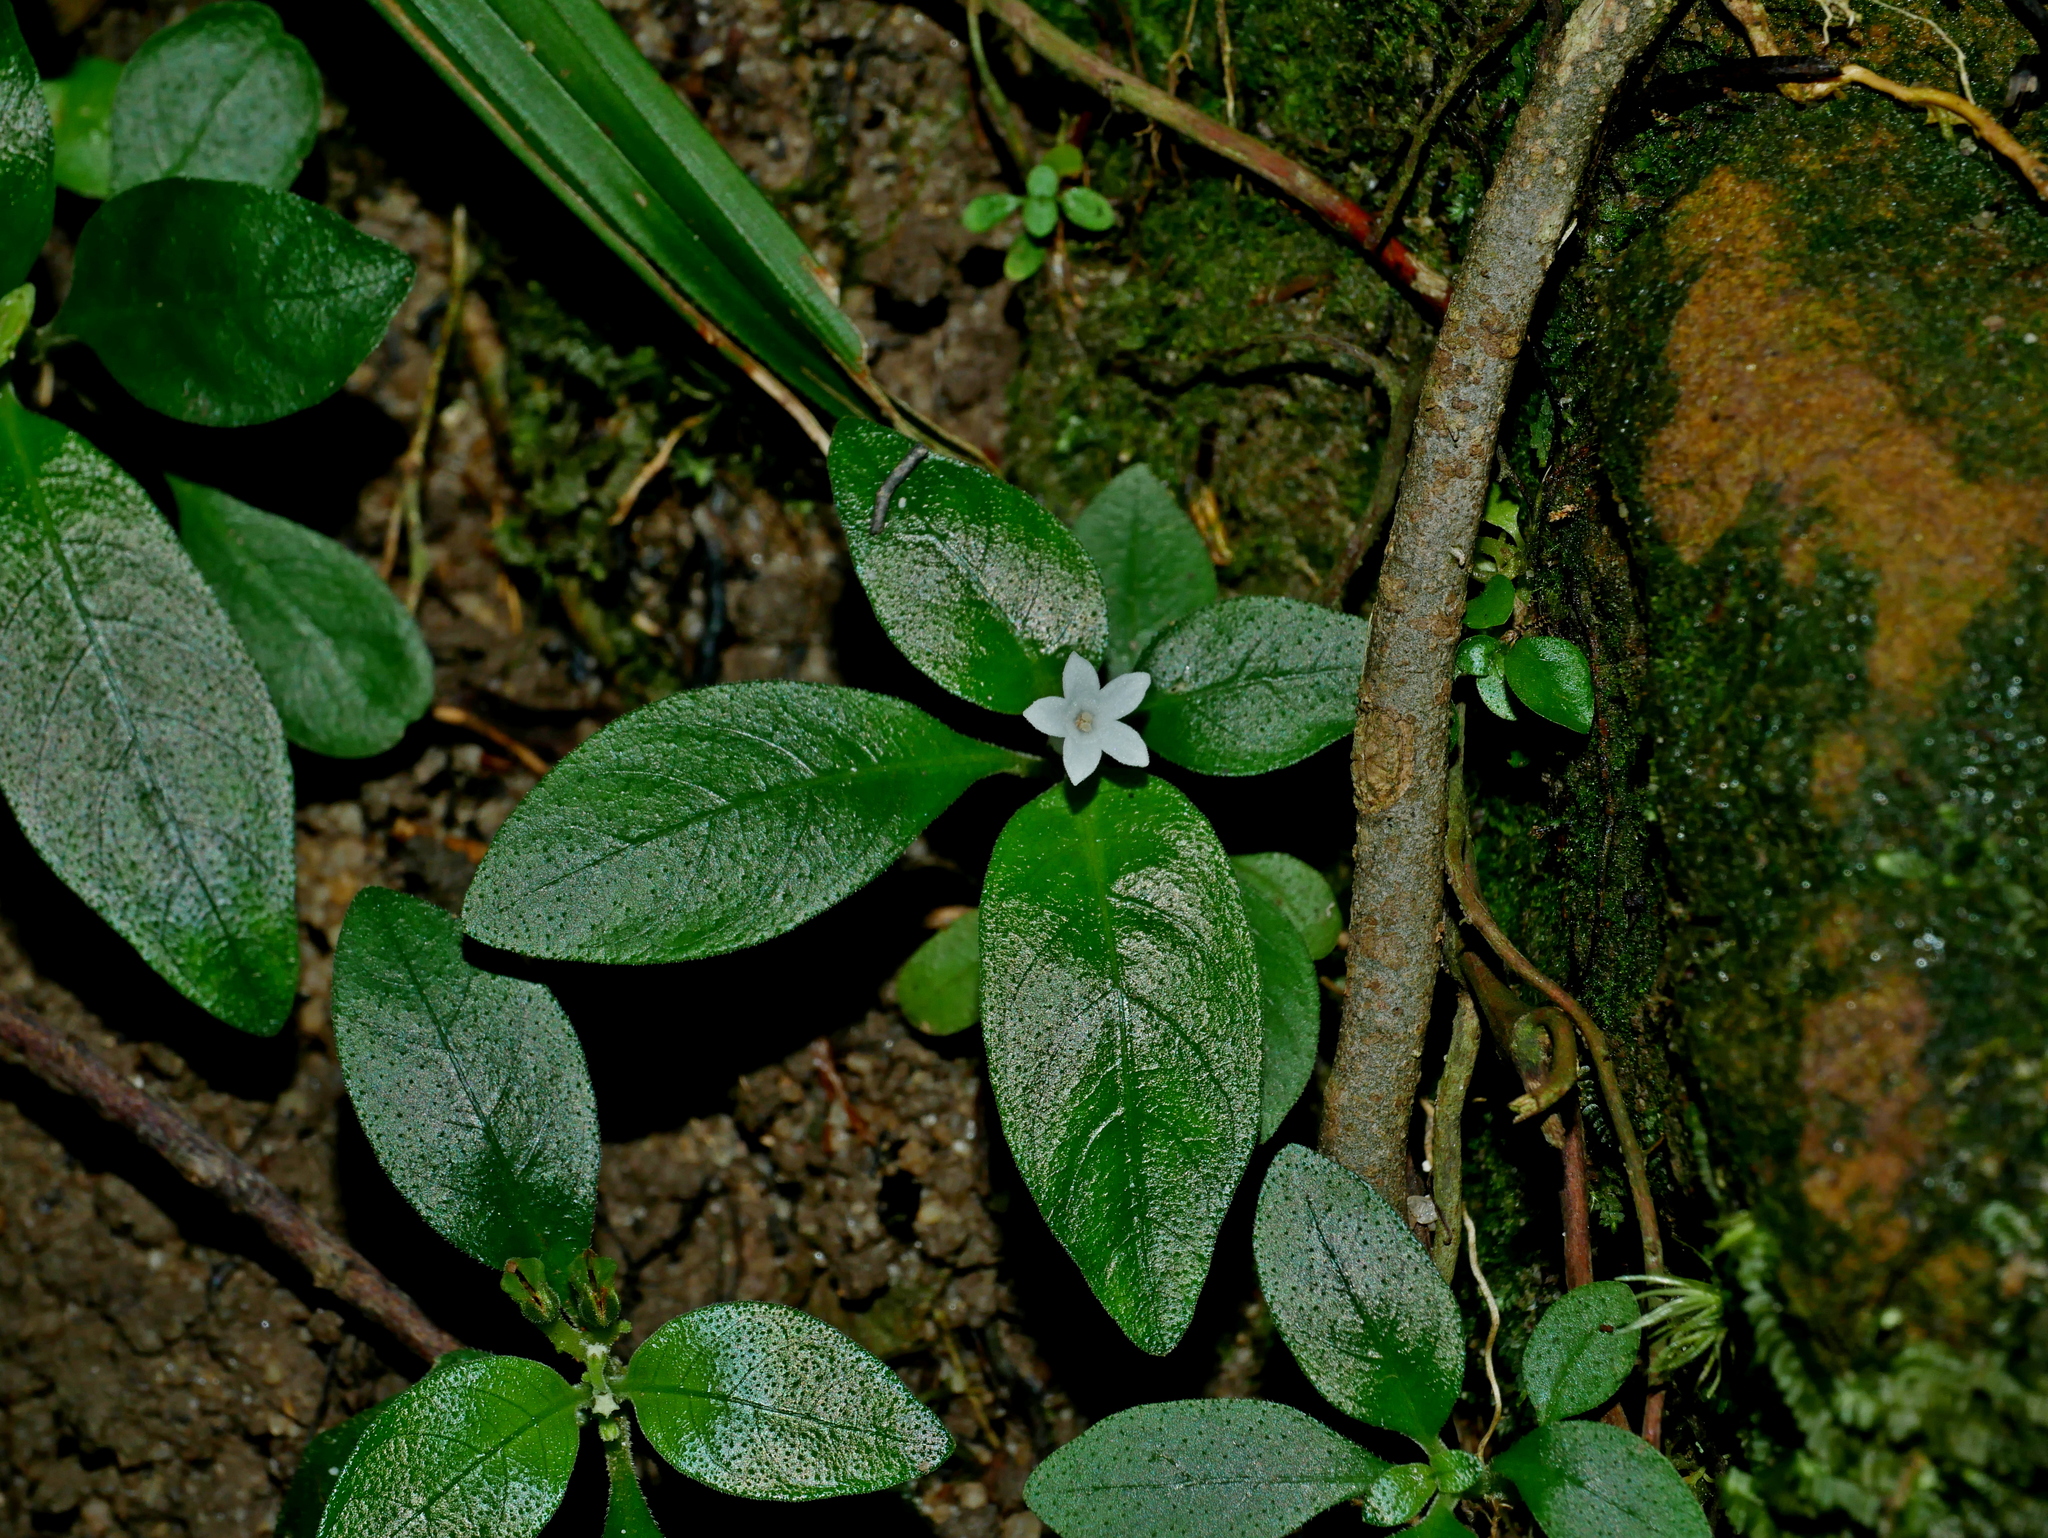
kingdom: Plantae
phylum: Tracheophyta
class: Magnoliopsida
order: Gentianales
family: Rubiaceae
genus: Ophiorrhiza
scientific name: Ophiorrhiza pumila
